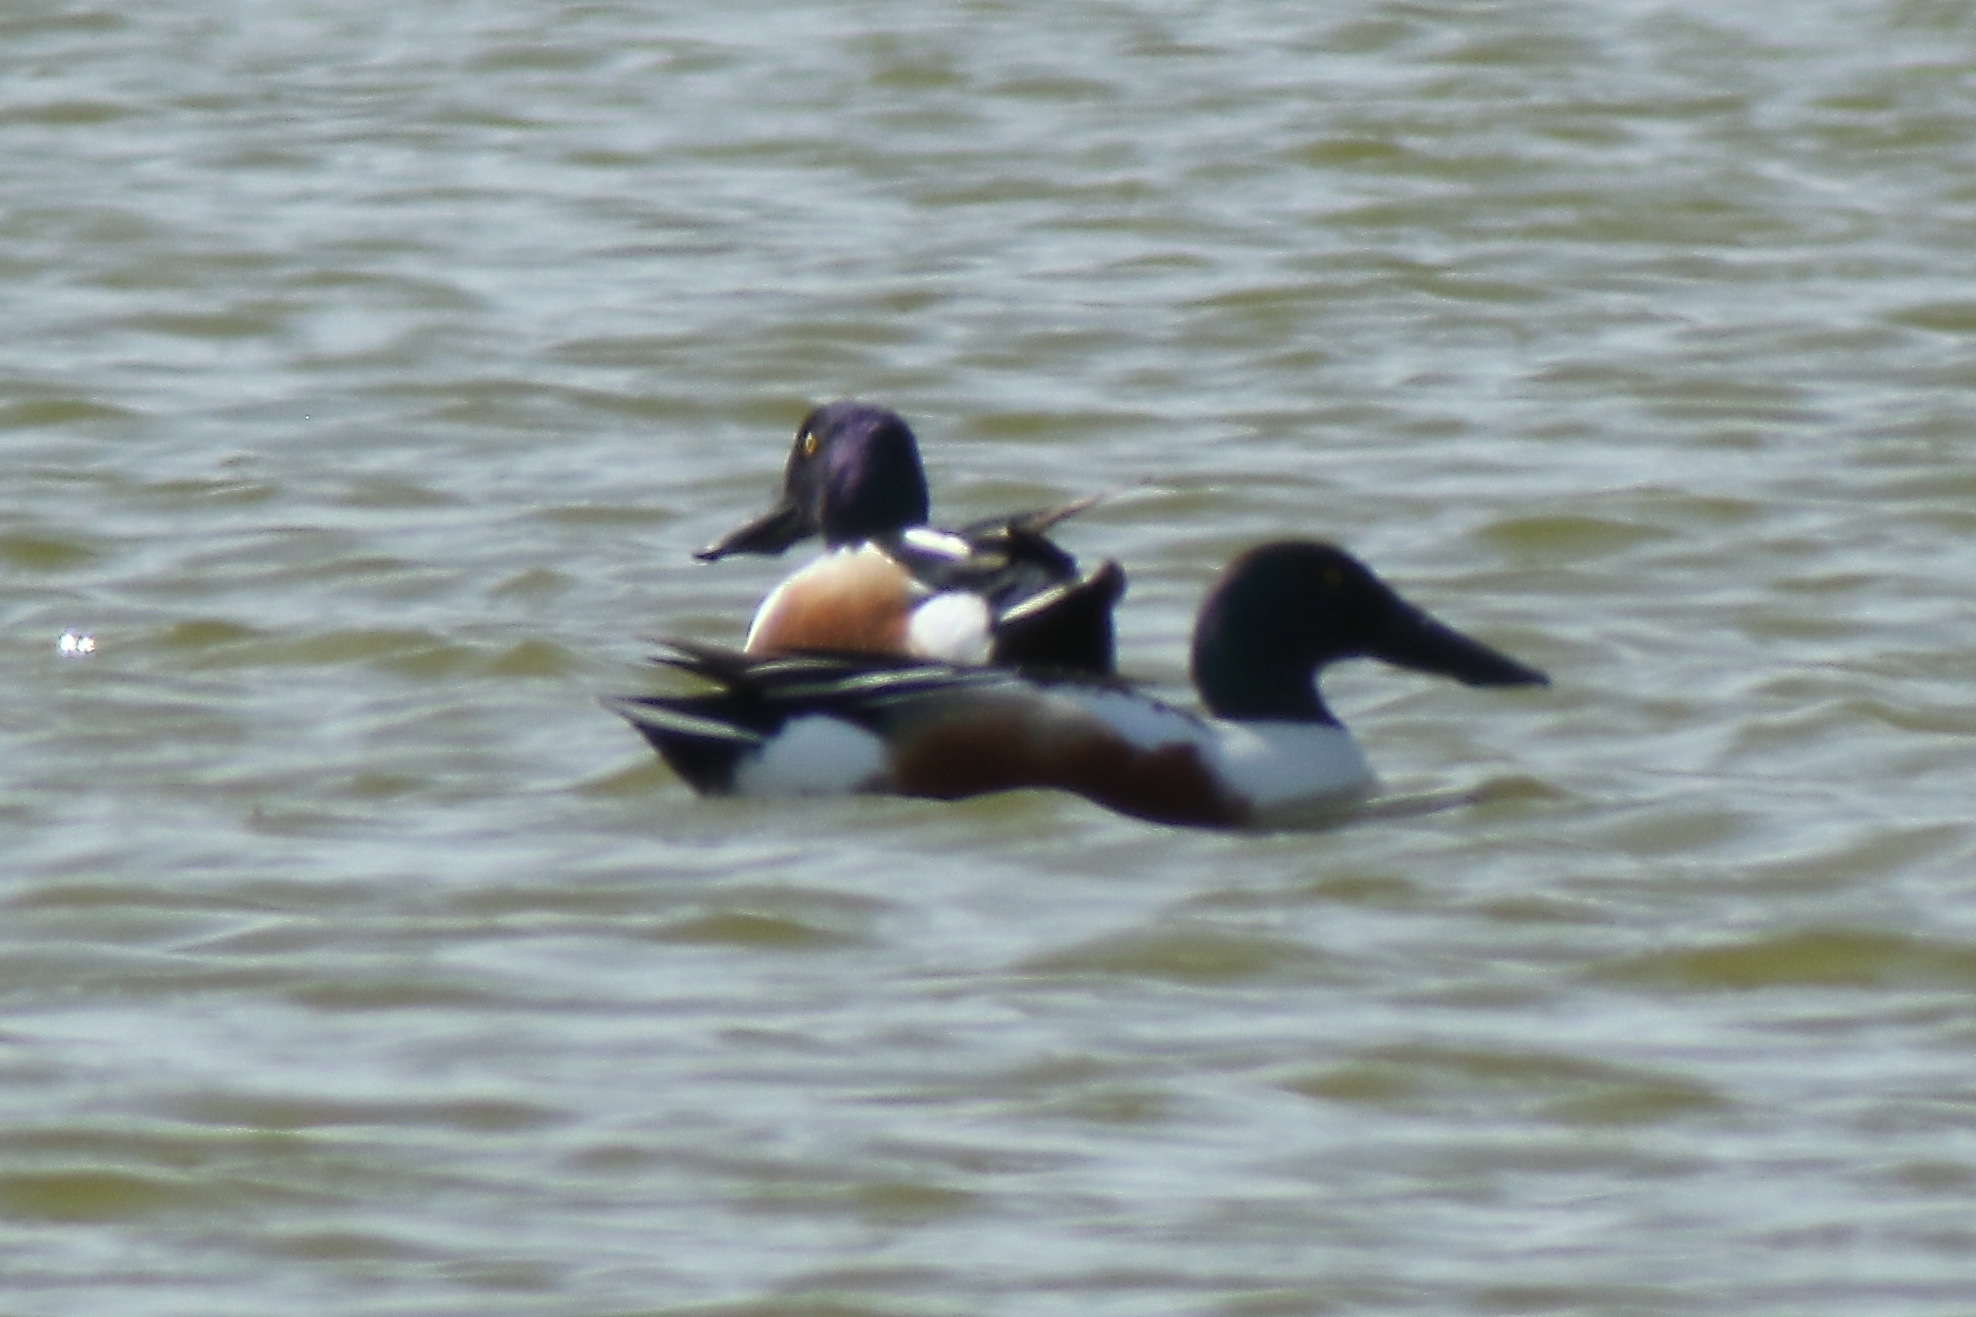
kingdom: Animalia
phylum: Chordata
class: Aves
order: Anseriformes
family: Anatidae
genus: Spatula
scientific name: Spatula clypeata
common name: Northern shoveler
